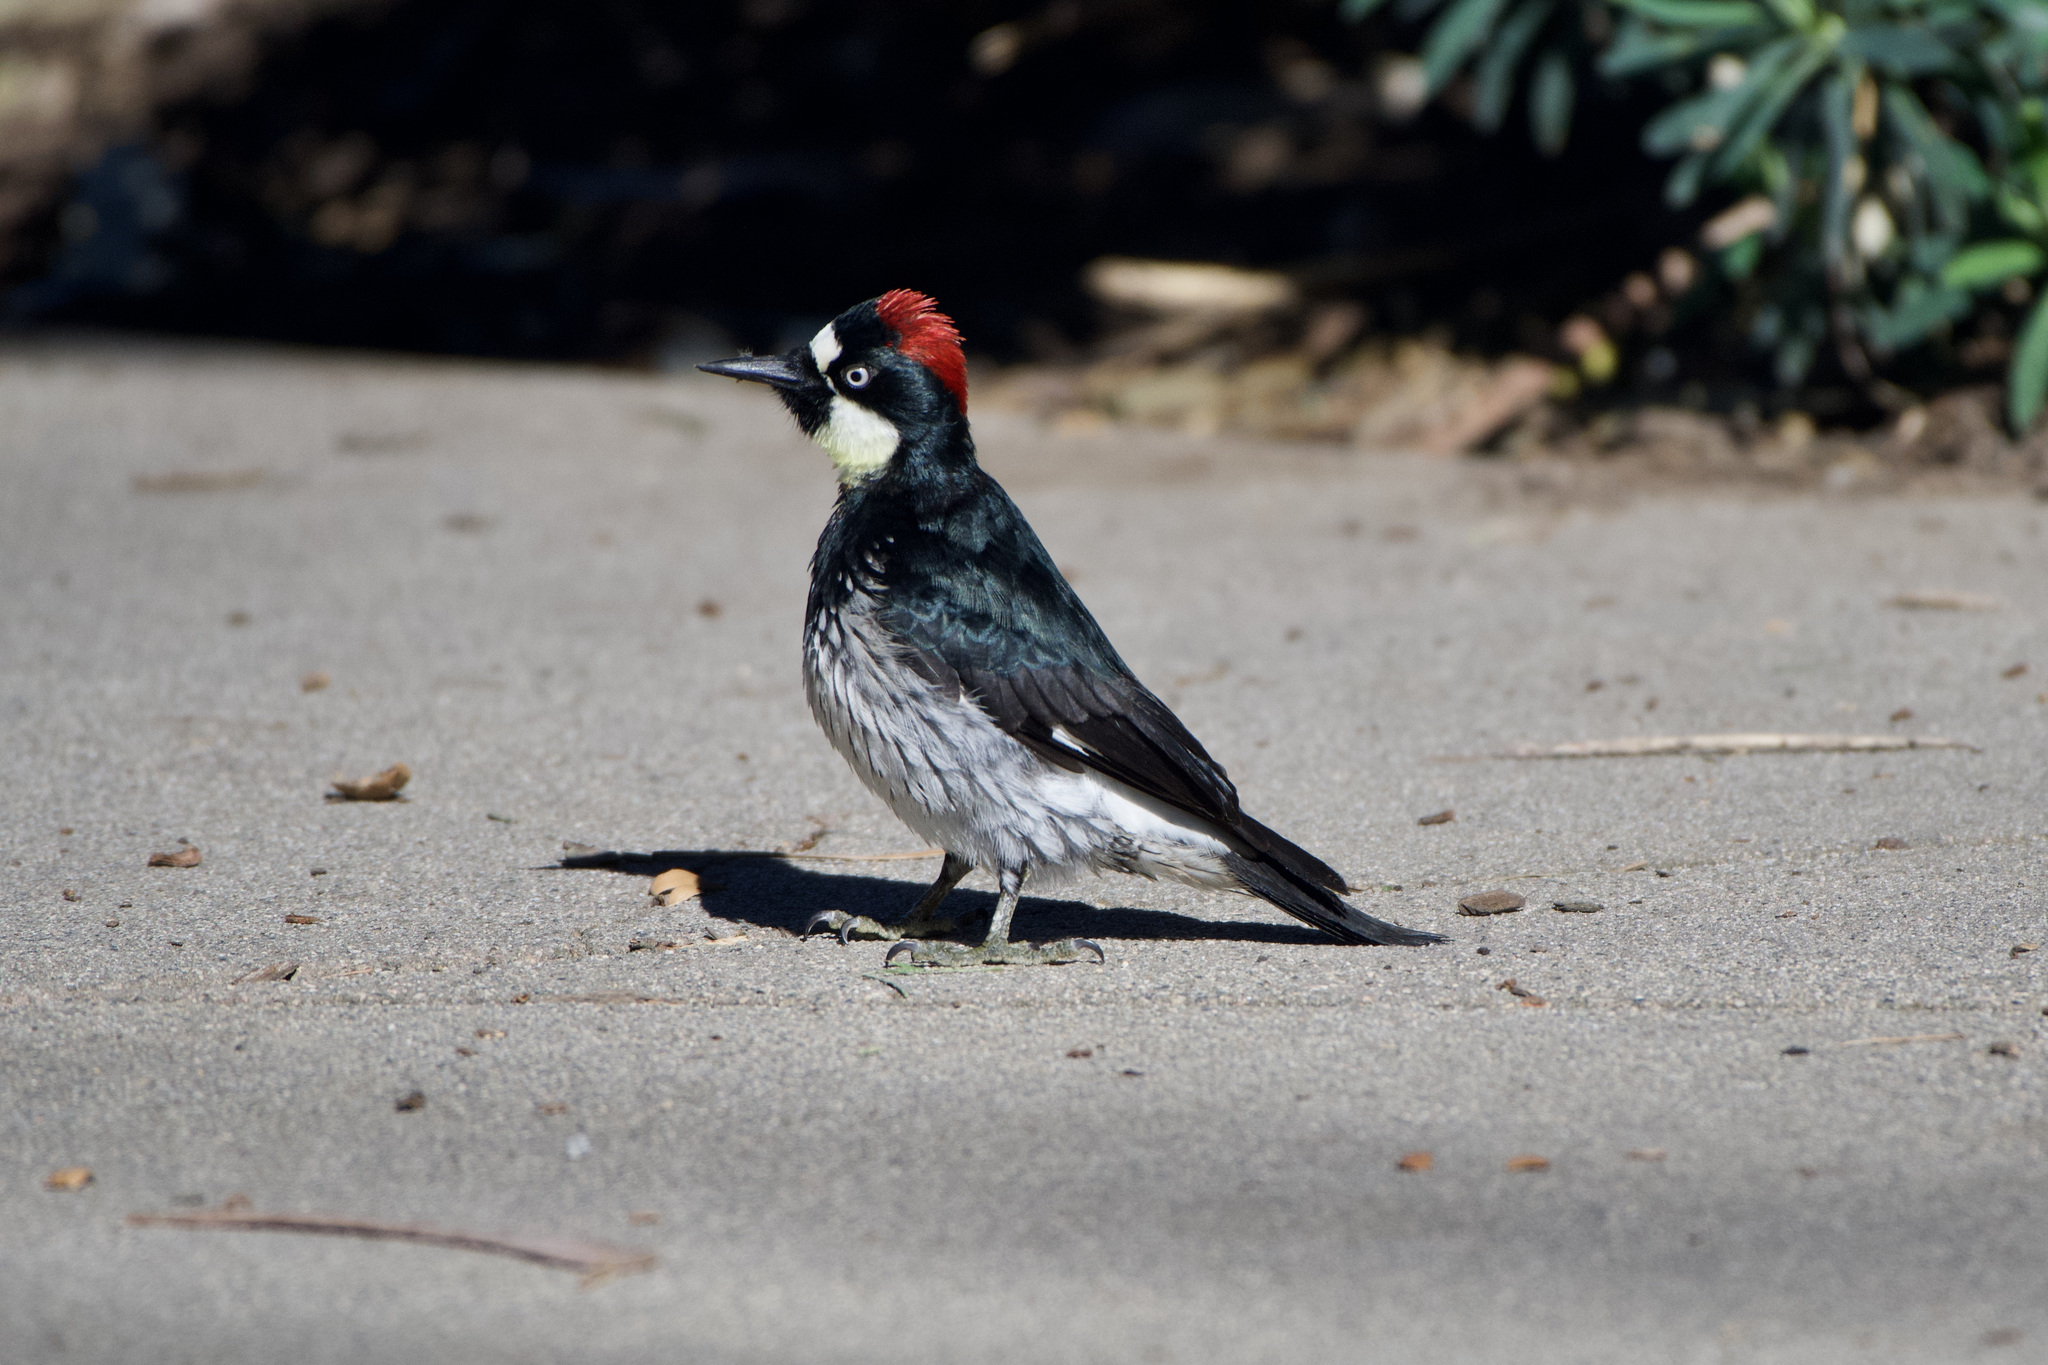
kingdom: Animalia
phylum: Chordata
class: Aves
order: Piciformes
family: Picidae
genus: Melanerpes
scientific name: Melanerpes formicivorus
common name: Acorn woodpecker
